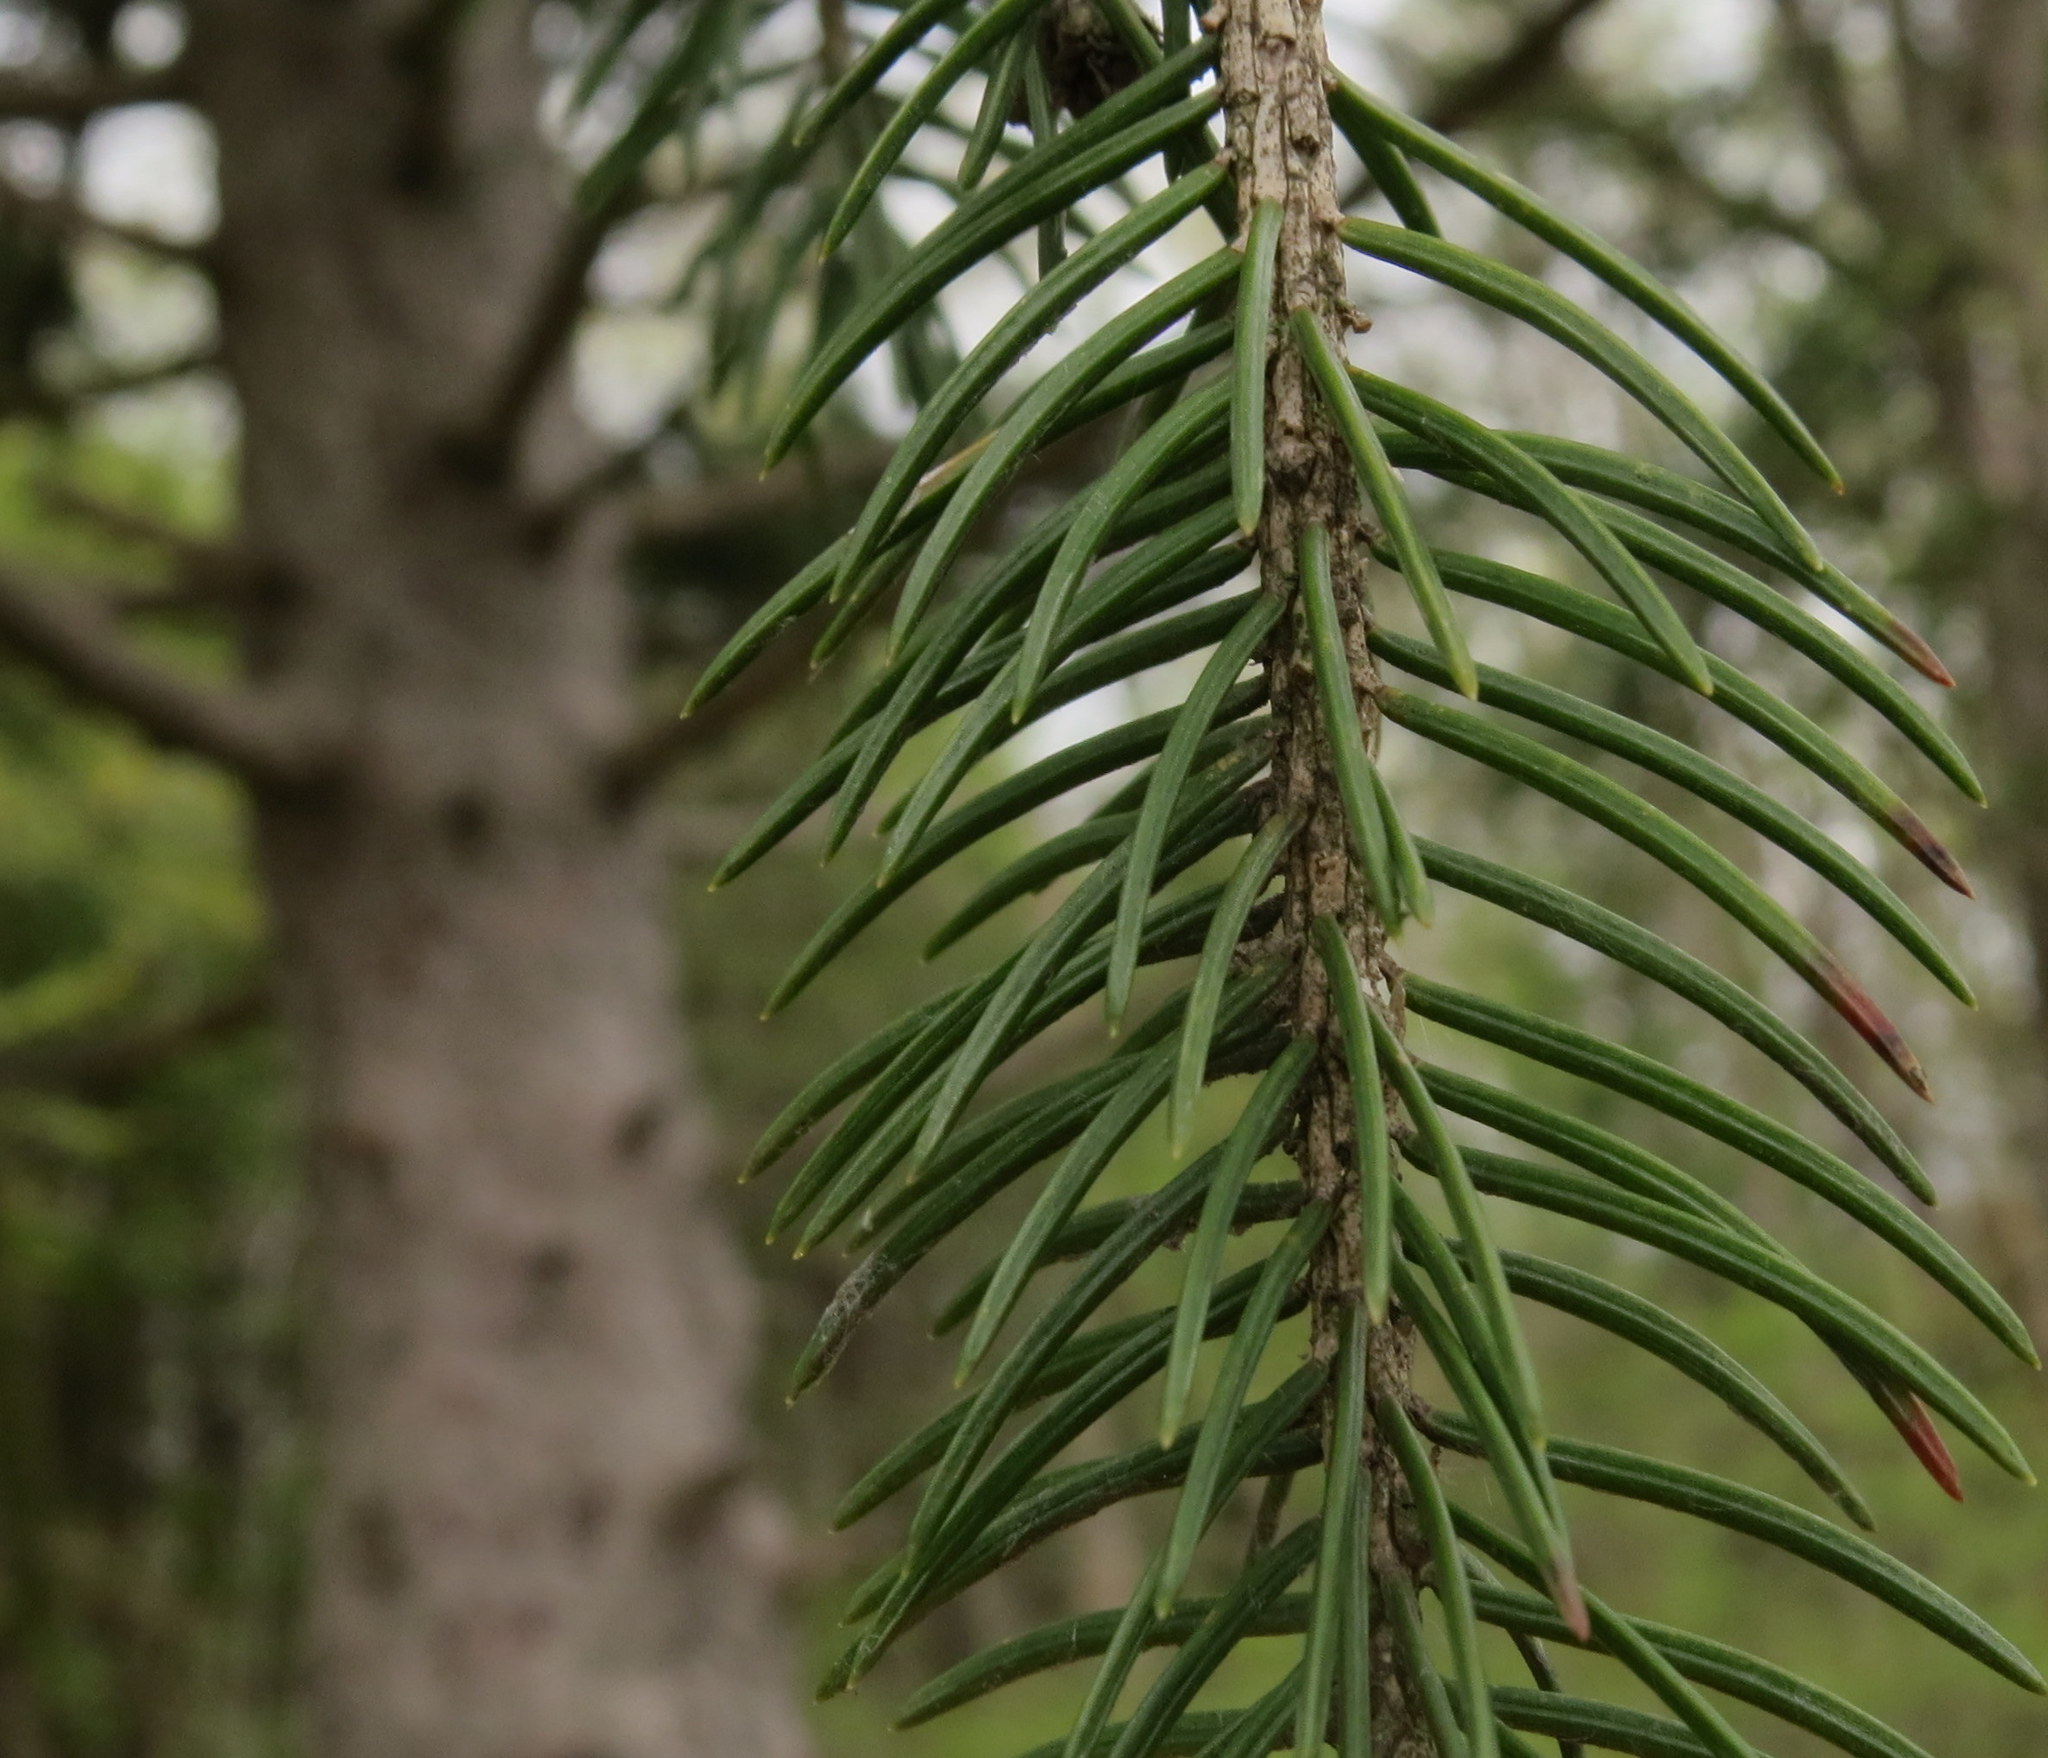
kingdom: Plantae
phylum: Tracheophyta
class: Pinopsida
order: Pinales
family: Pinaceae
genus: Picea
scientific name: Picea abies
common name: Norway spruce
